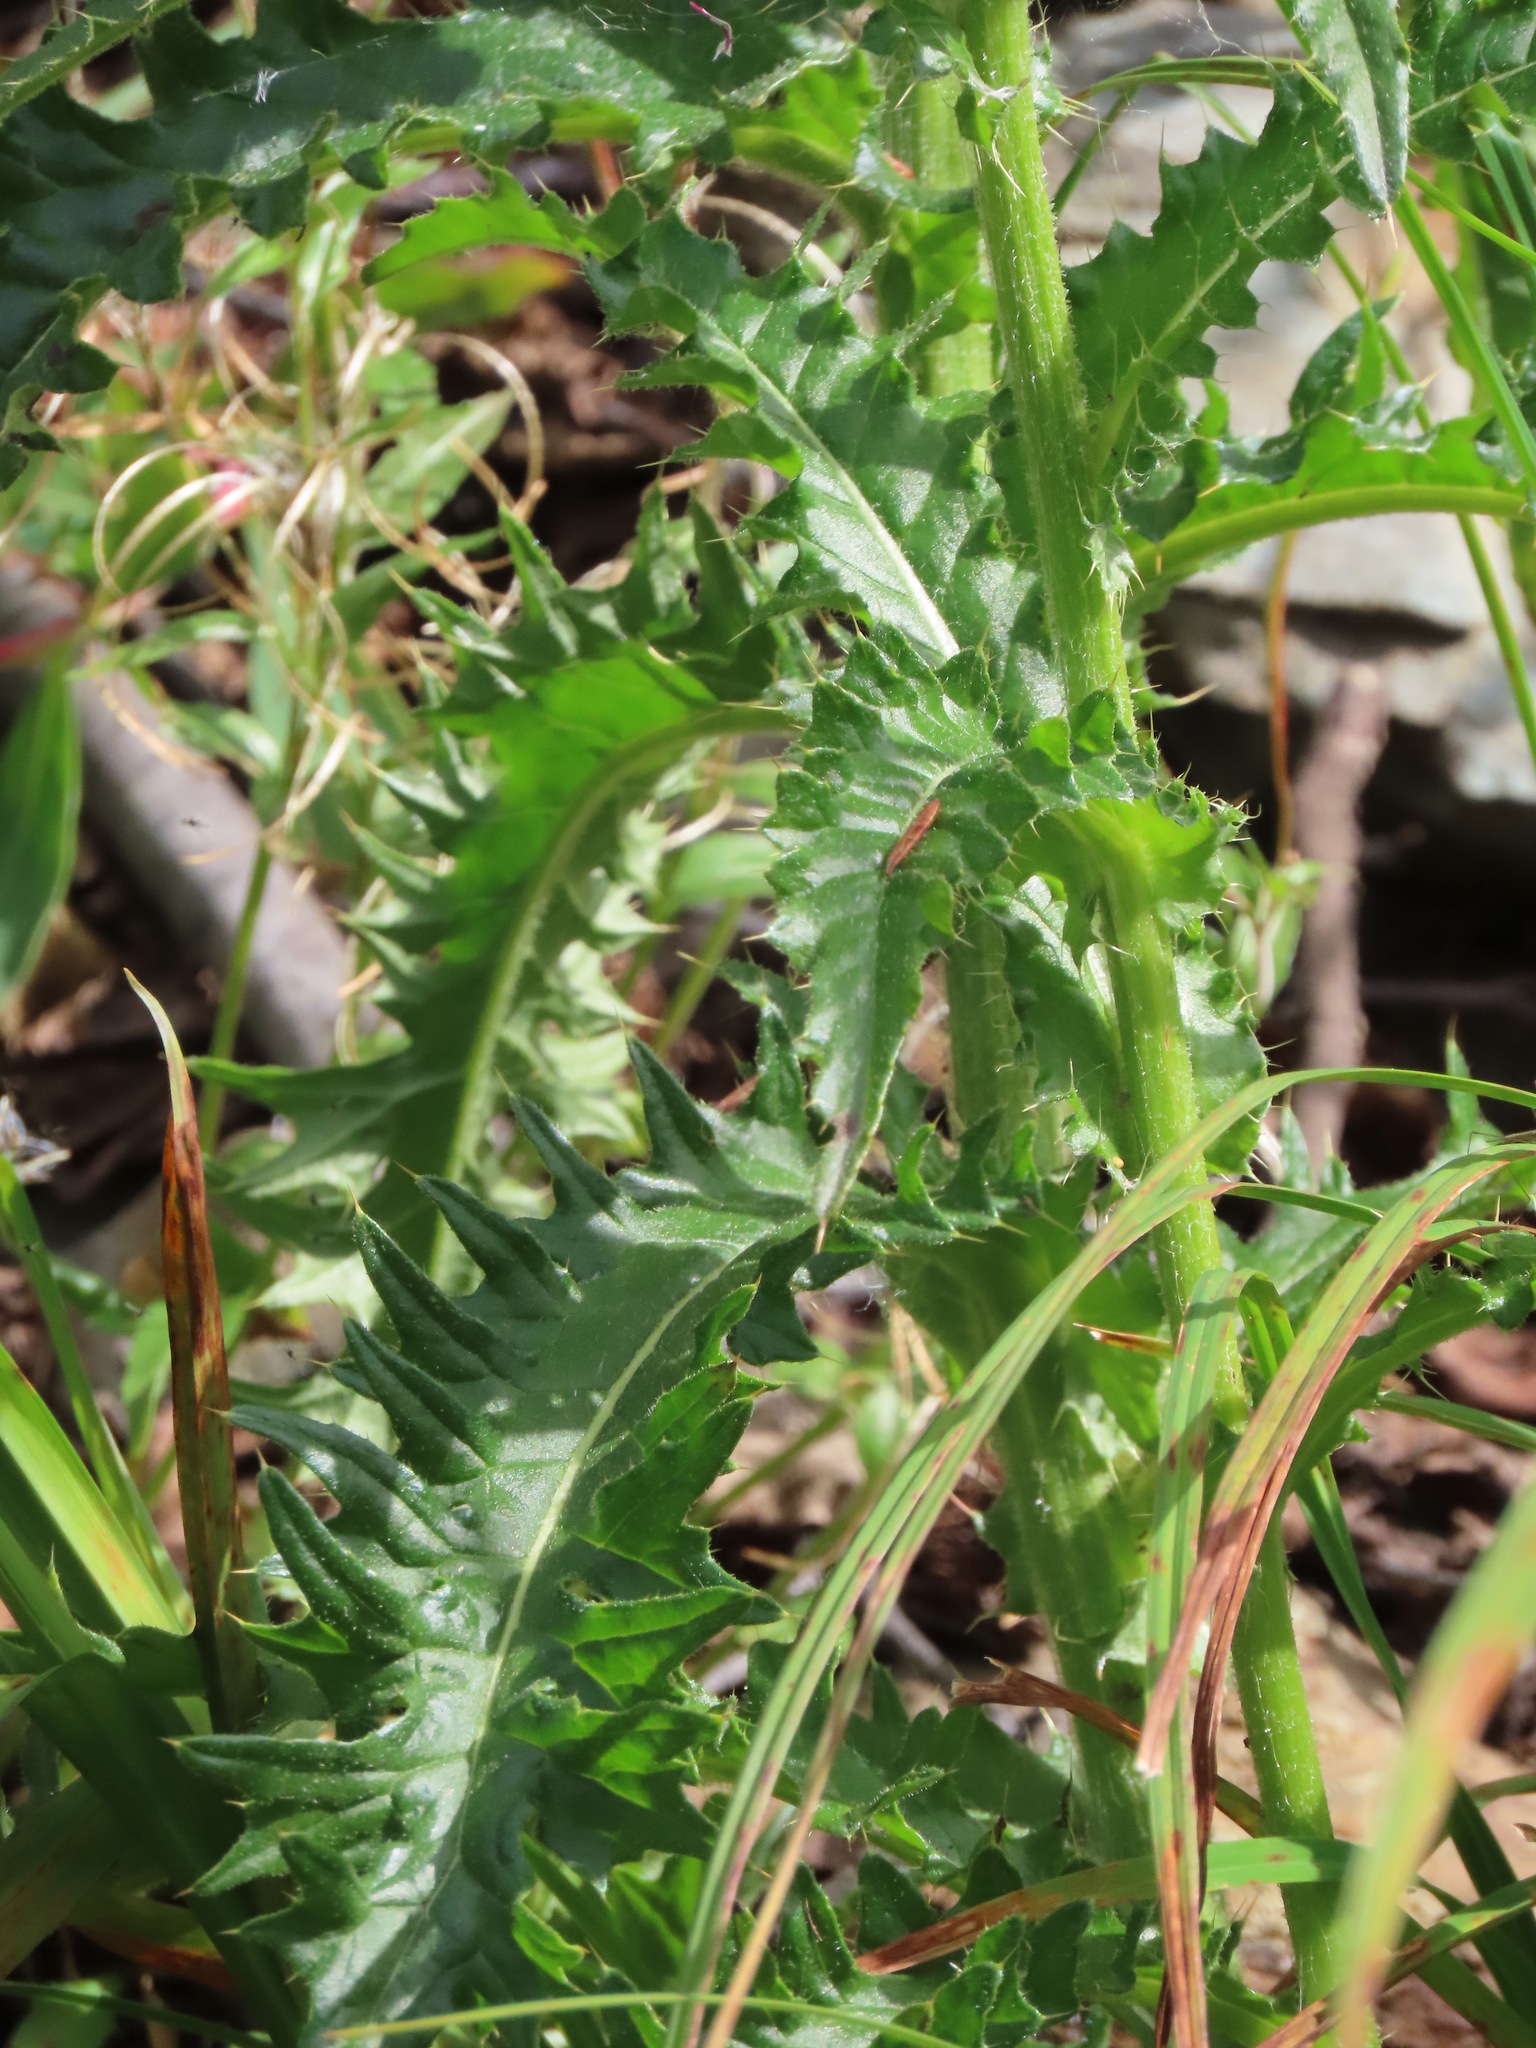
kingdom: Plantae
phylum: Tracheophyta
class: Magnoliopsida
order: Asterales
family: Asteraceae
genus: Cirsium
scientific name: Cirsium edule
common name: Indian thistle
